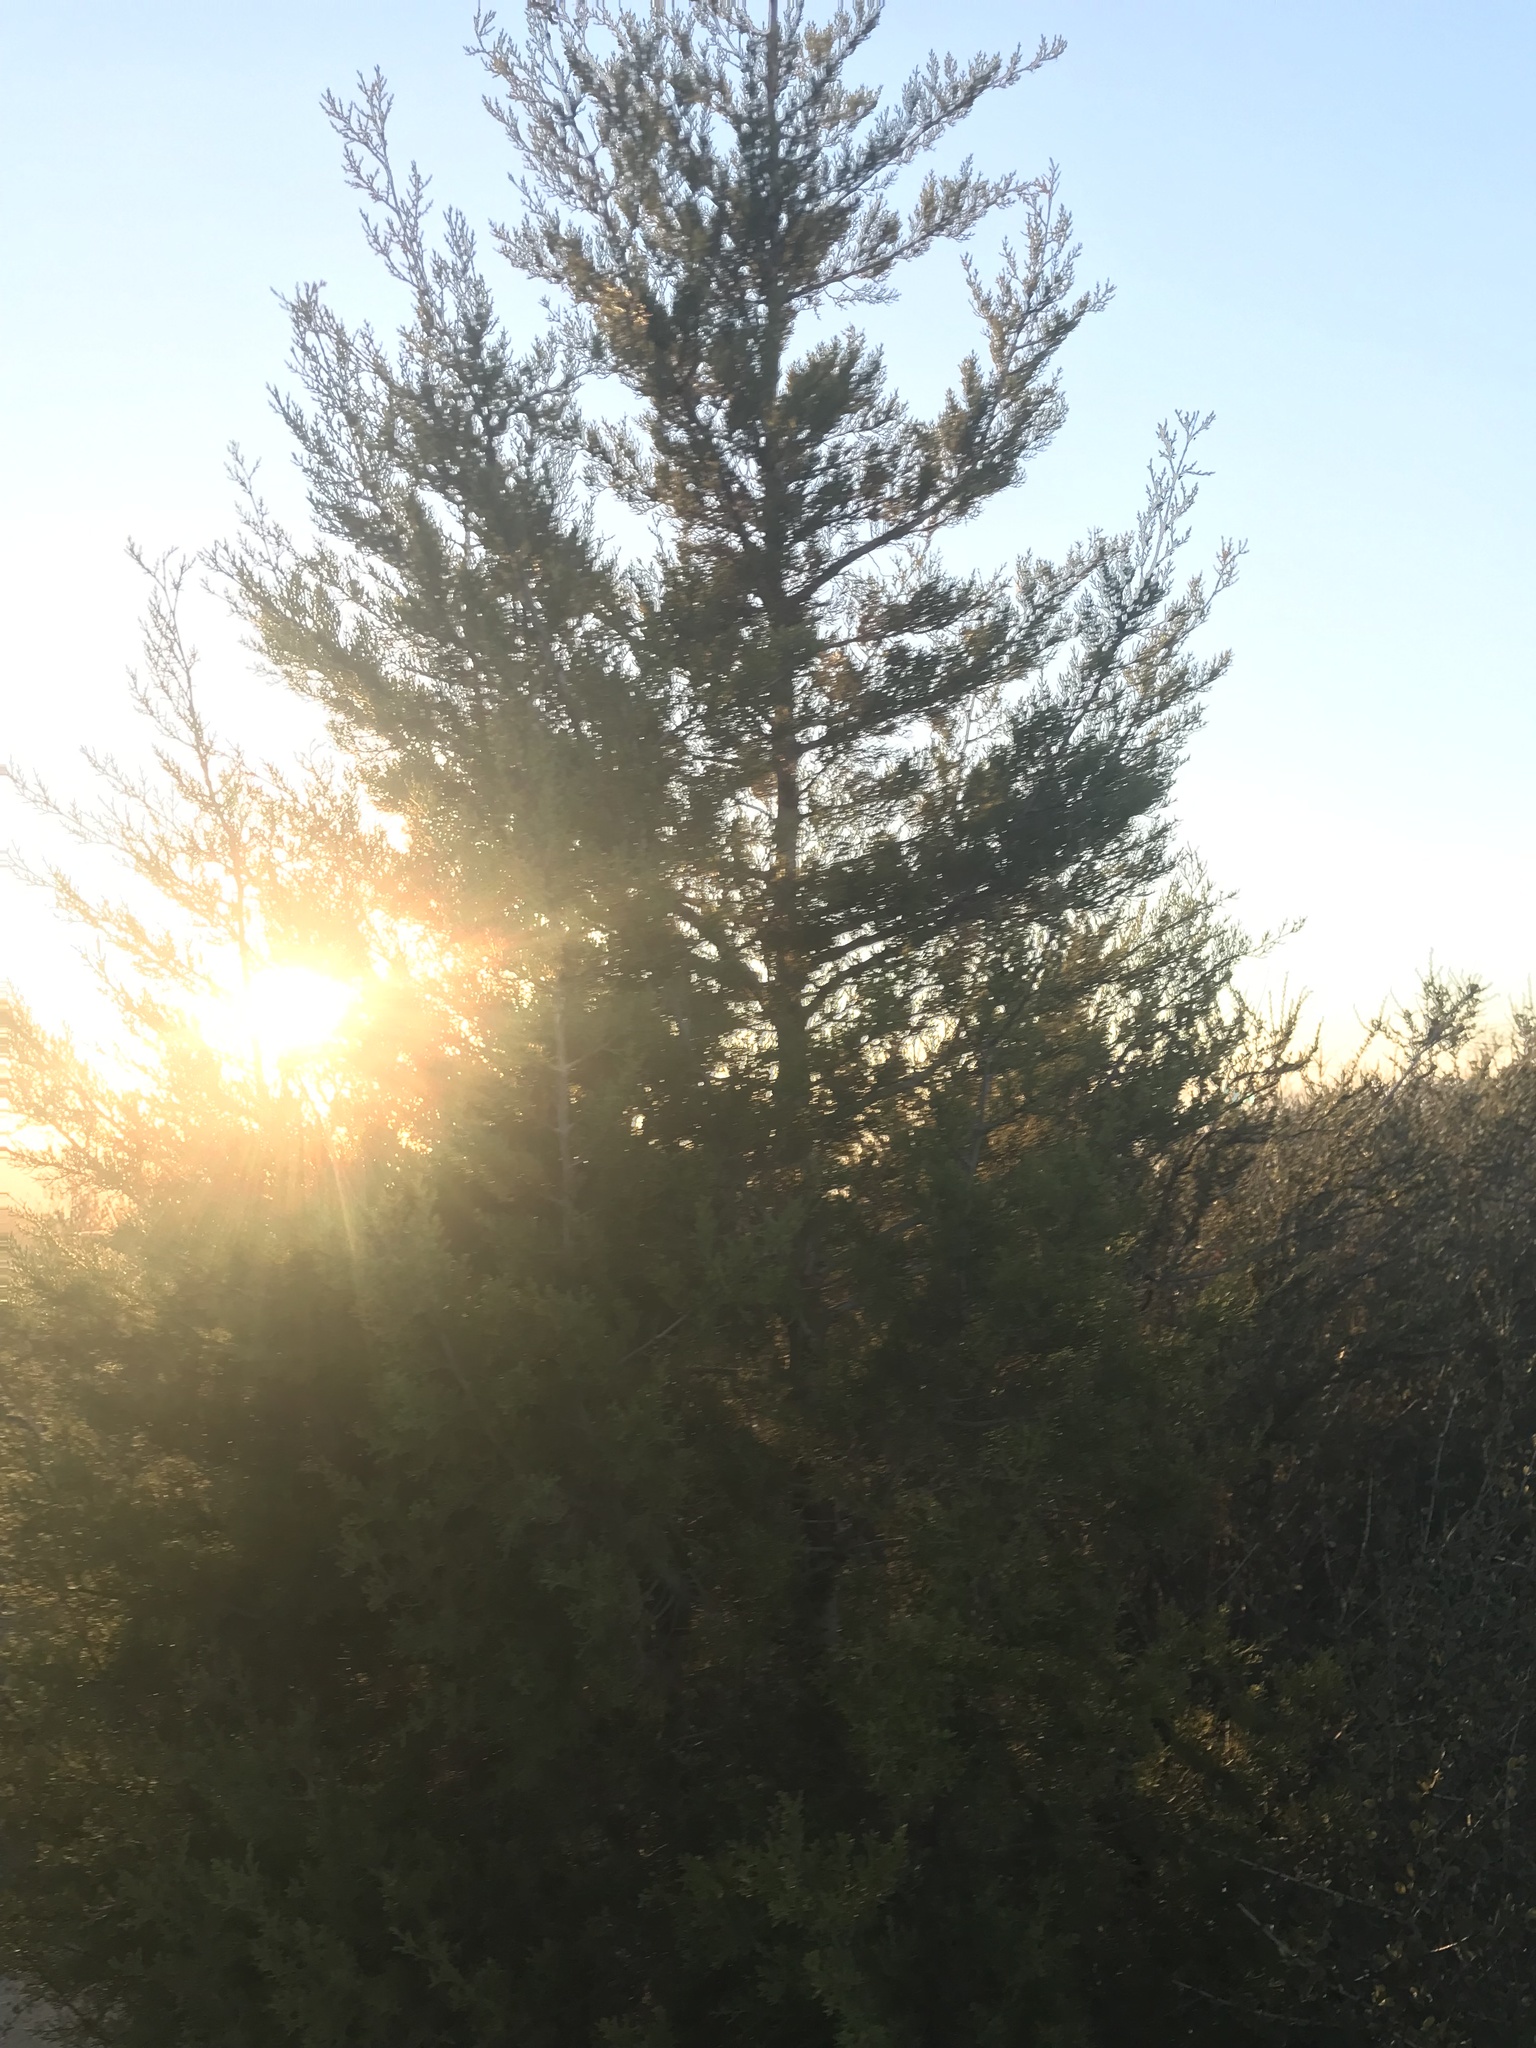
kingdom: Plantae
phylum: Tracheophyta
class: Pinopsida
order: Pinales
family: Cupressaceae
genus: Cupressus
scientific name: Cupressus guadalupensis
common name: Forbes cypress
